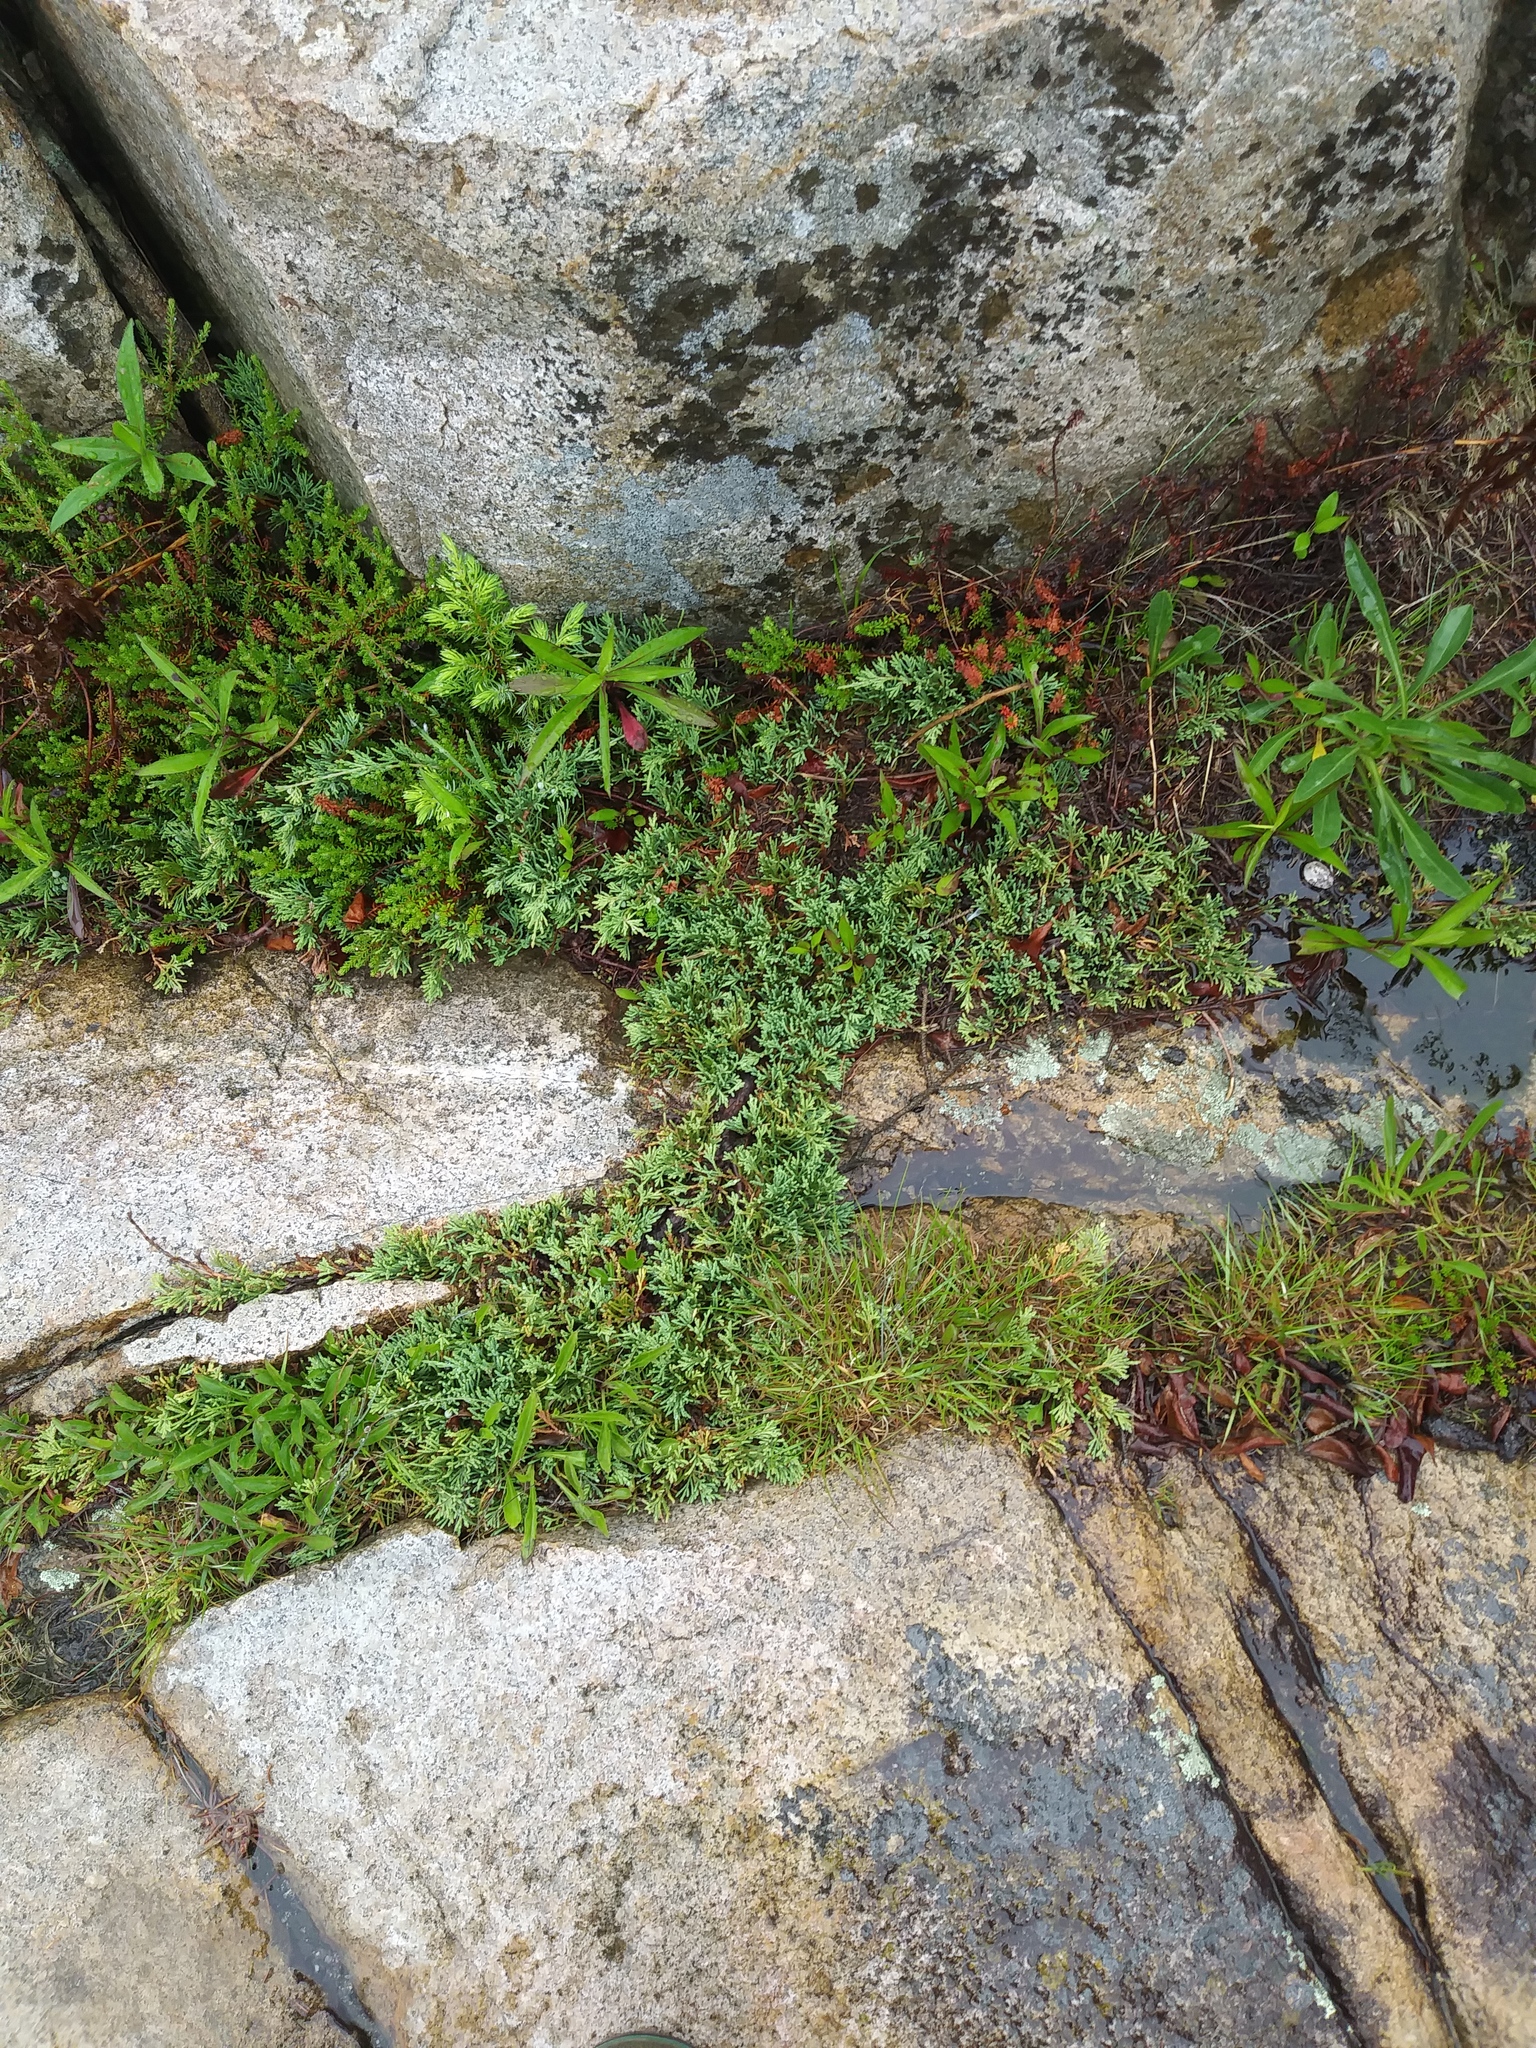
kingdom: Plantae
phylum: Tracheophyta
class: Pinopsida
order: Pinales
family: Cupressaceae
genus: Juniperus
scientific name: Juniperus horizontalis
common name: Creeping juniper
